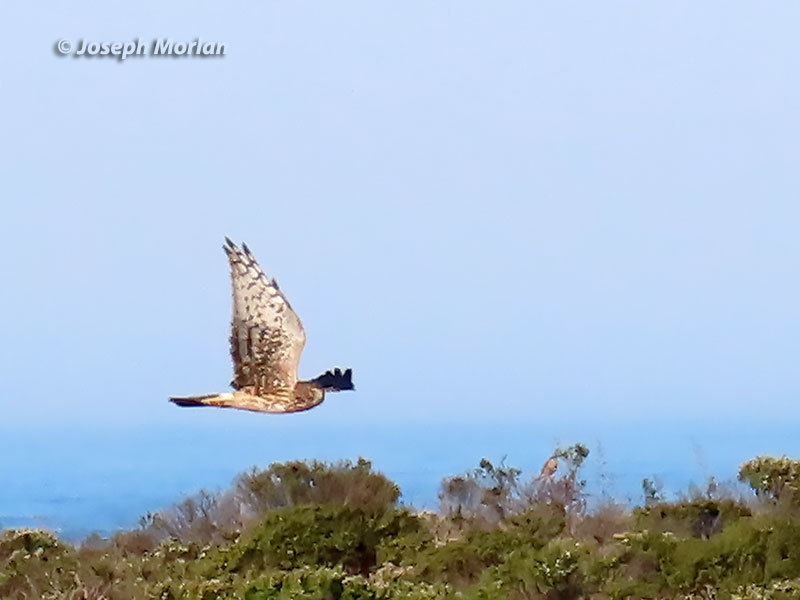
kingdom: Animalia
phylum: Chordata
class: Aves
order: Accipitriformes
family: Accipitridae
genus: Circus
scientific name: Circus cyaneus
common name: Hen harrier
